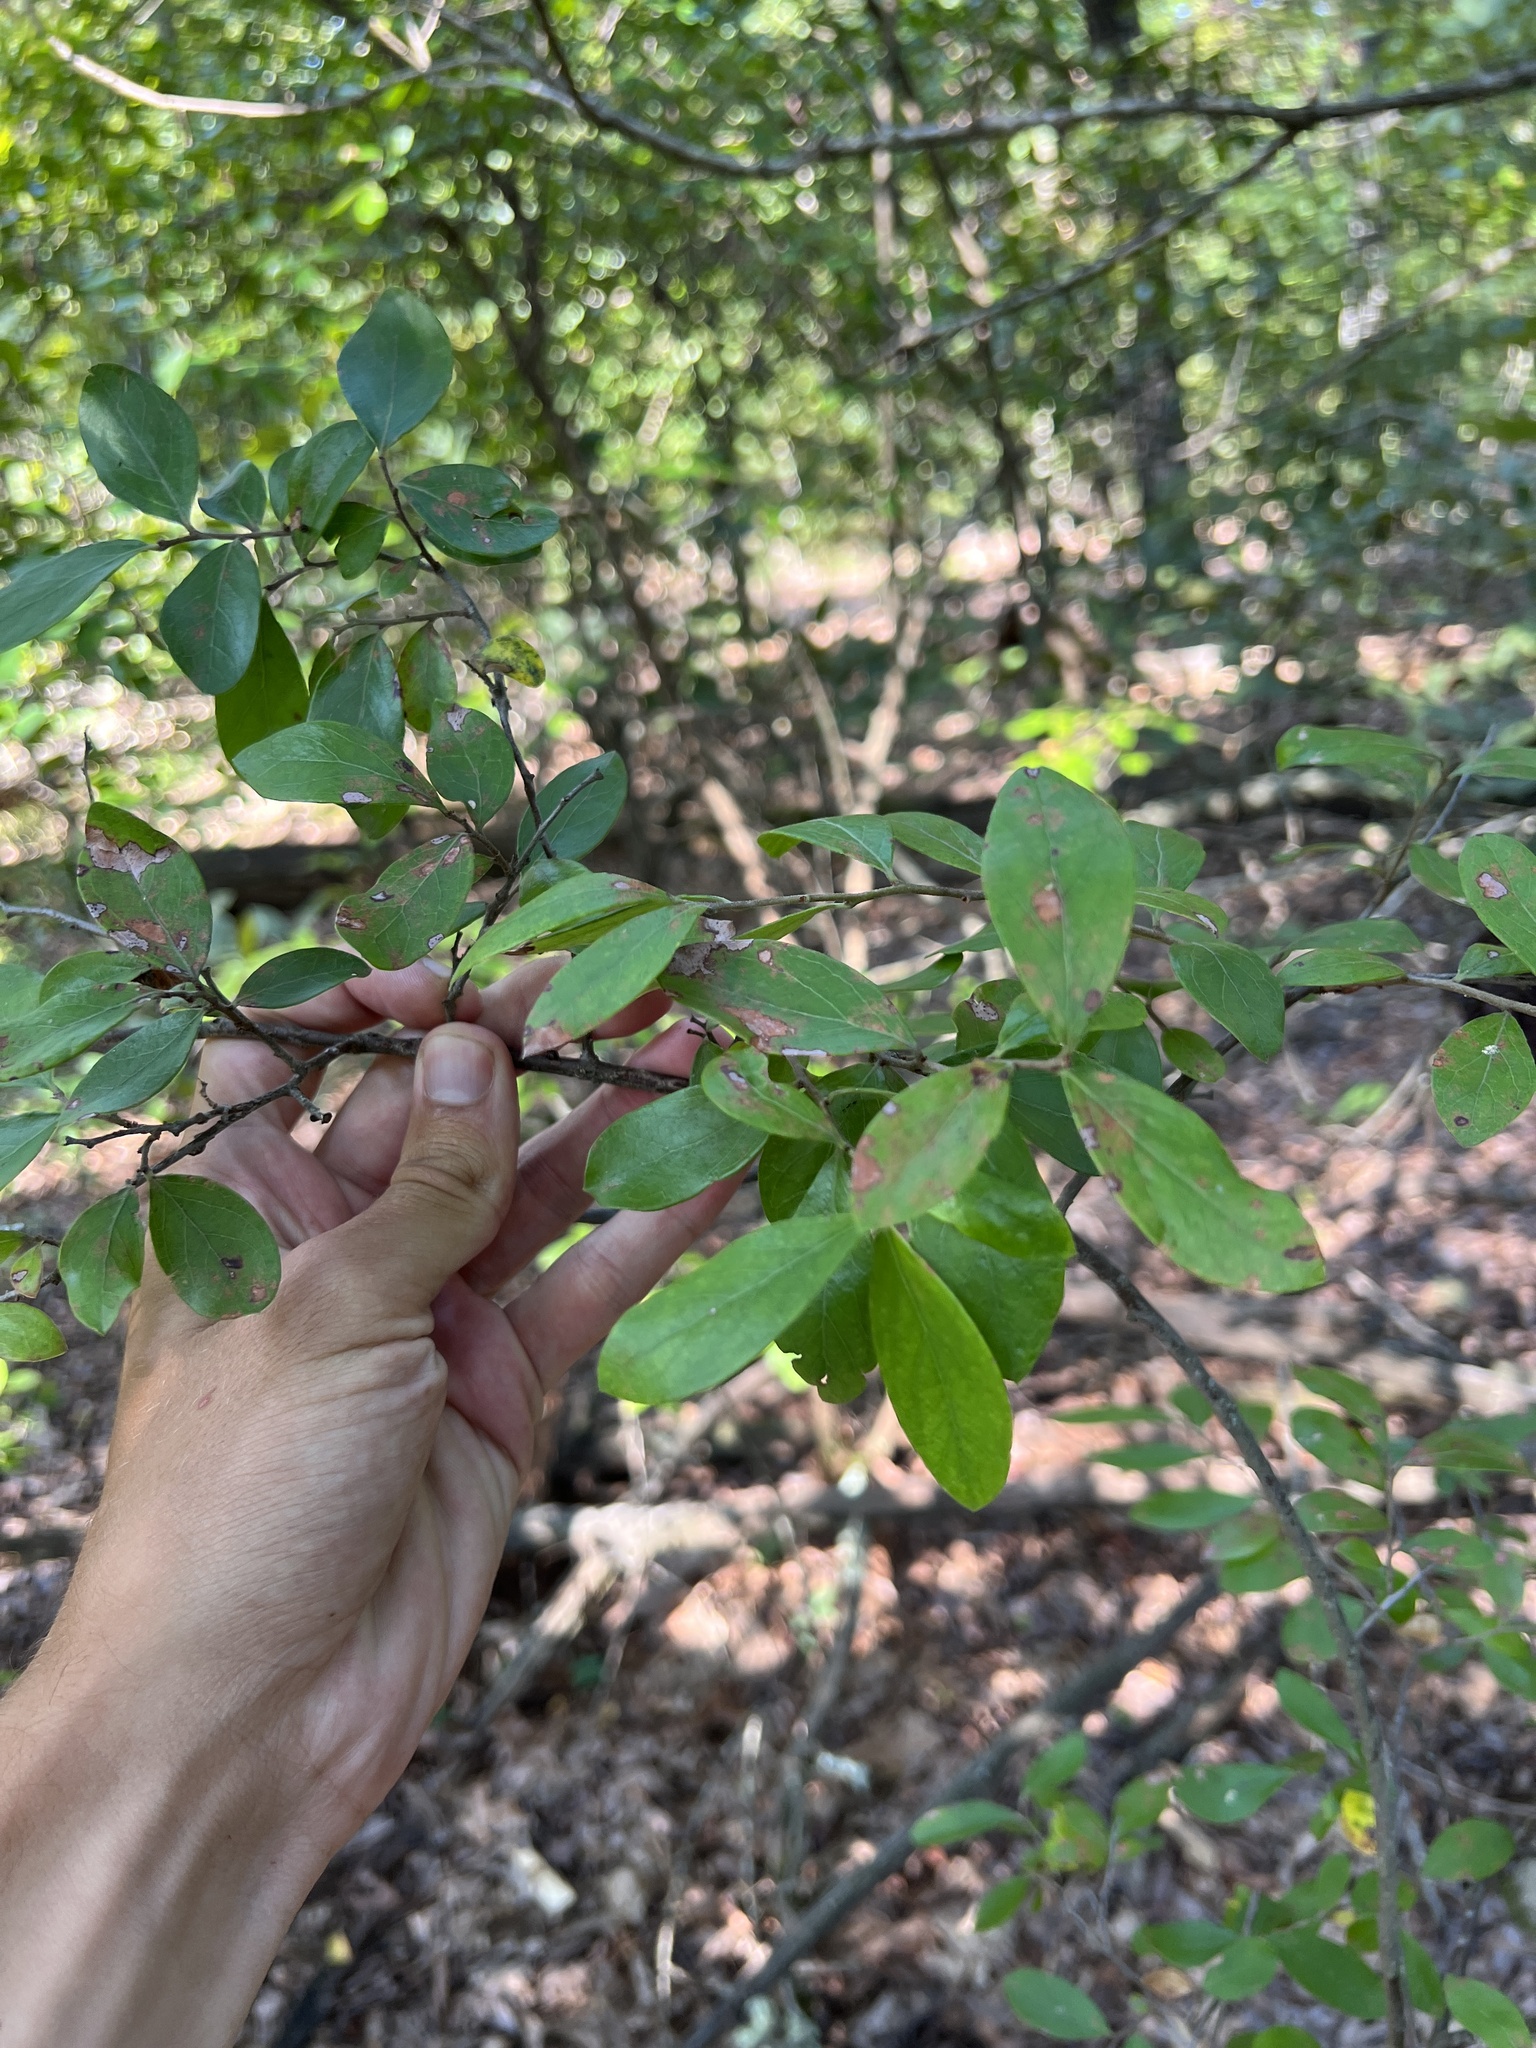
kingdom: Plantae
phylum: Tracheophyta
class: Magnoliopsida
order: Ericales
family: Ericaceae
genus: Vaccinium
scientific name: Vaccinium arboreum
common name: Farkleberry
